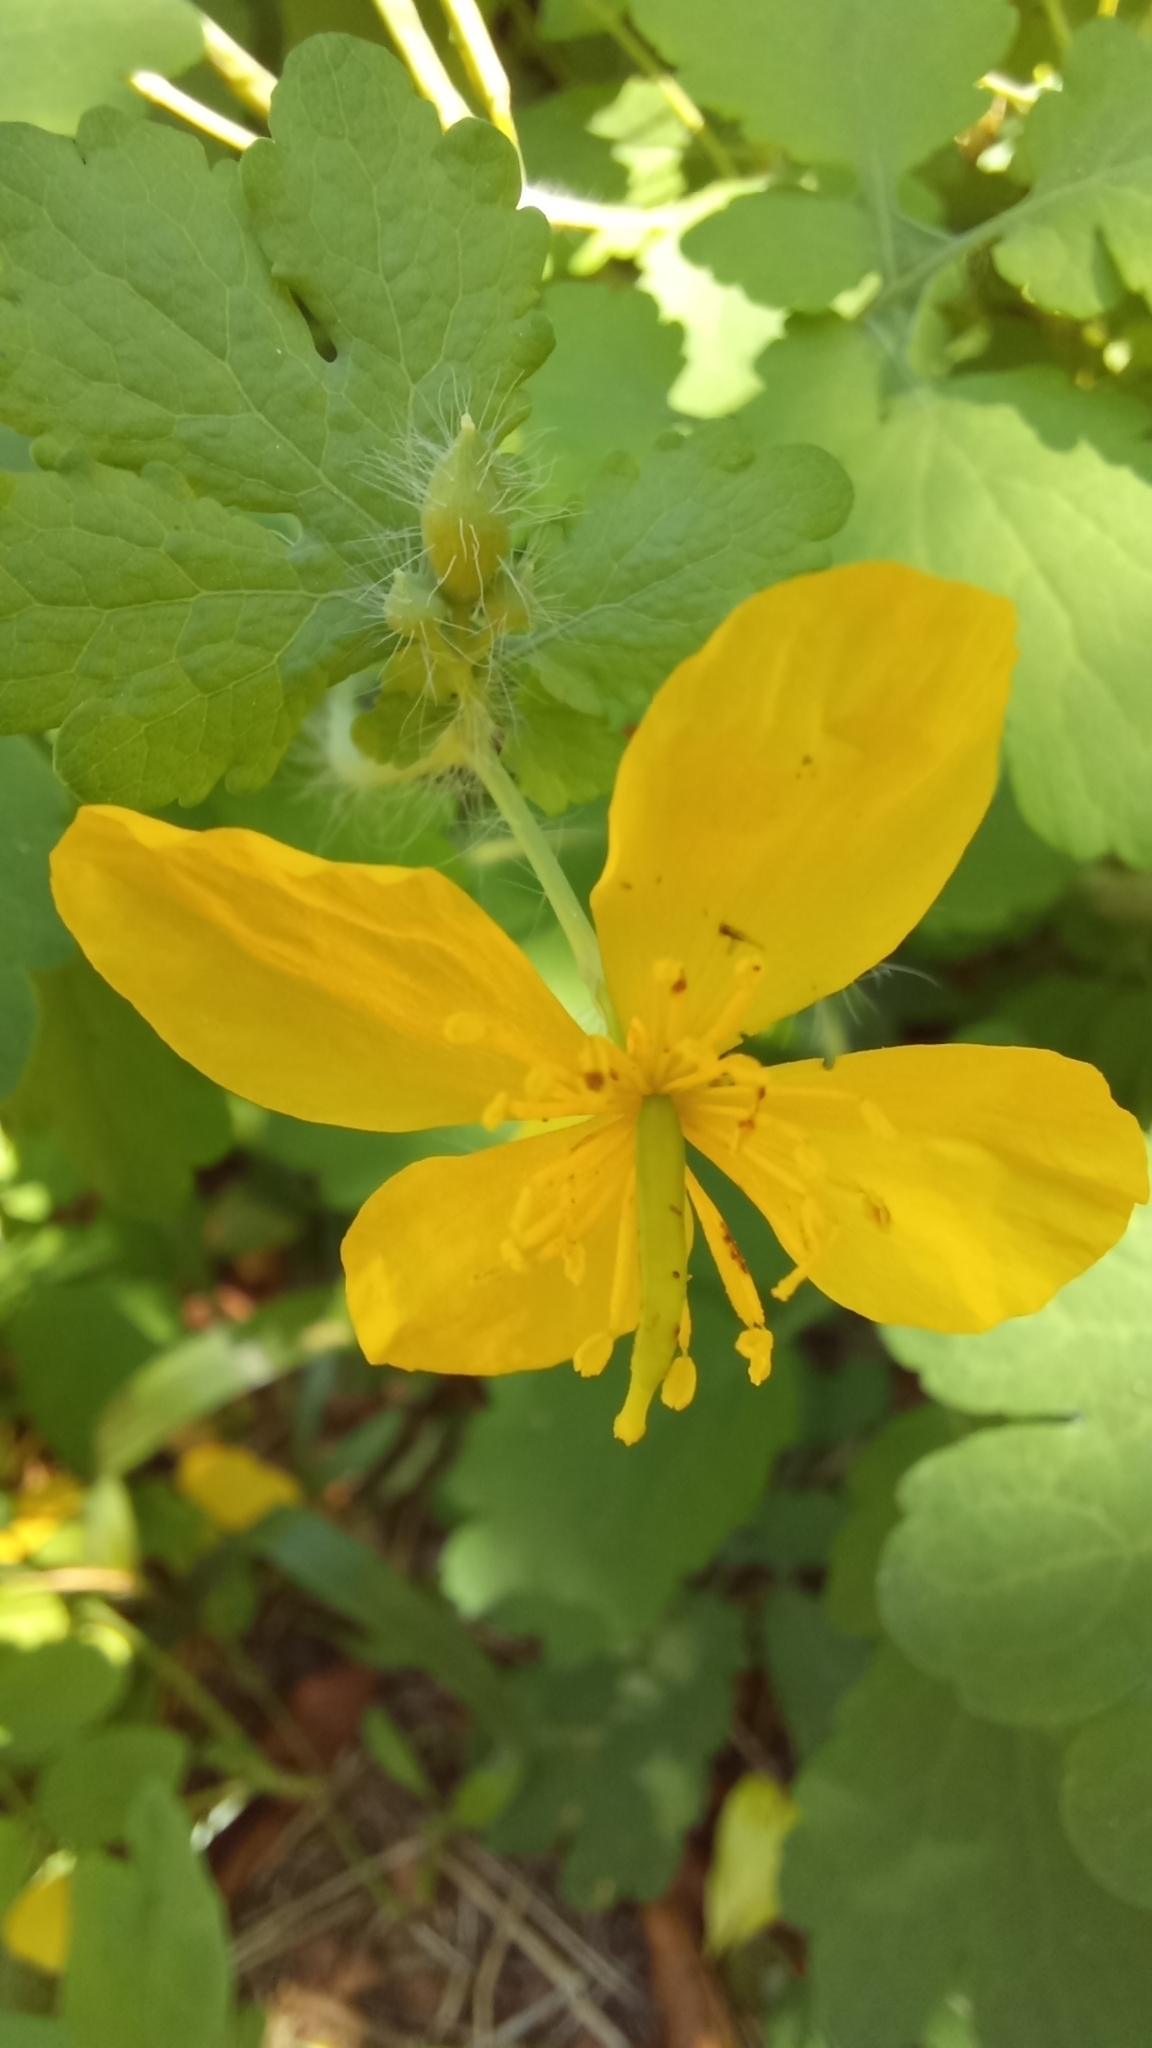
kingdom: Plantae
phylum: Tracheophyta
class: Magnoliopsida
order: Ranunculales
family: Papaveraceae
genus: Chelidonium
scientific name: Chelidonium majus
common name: Greater celandine
